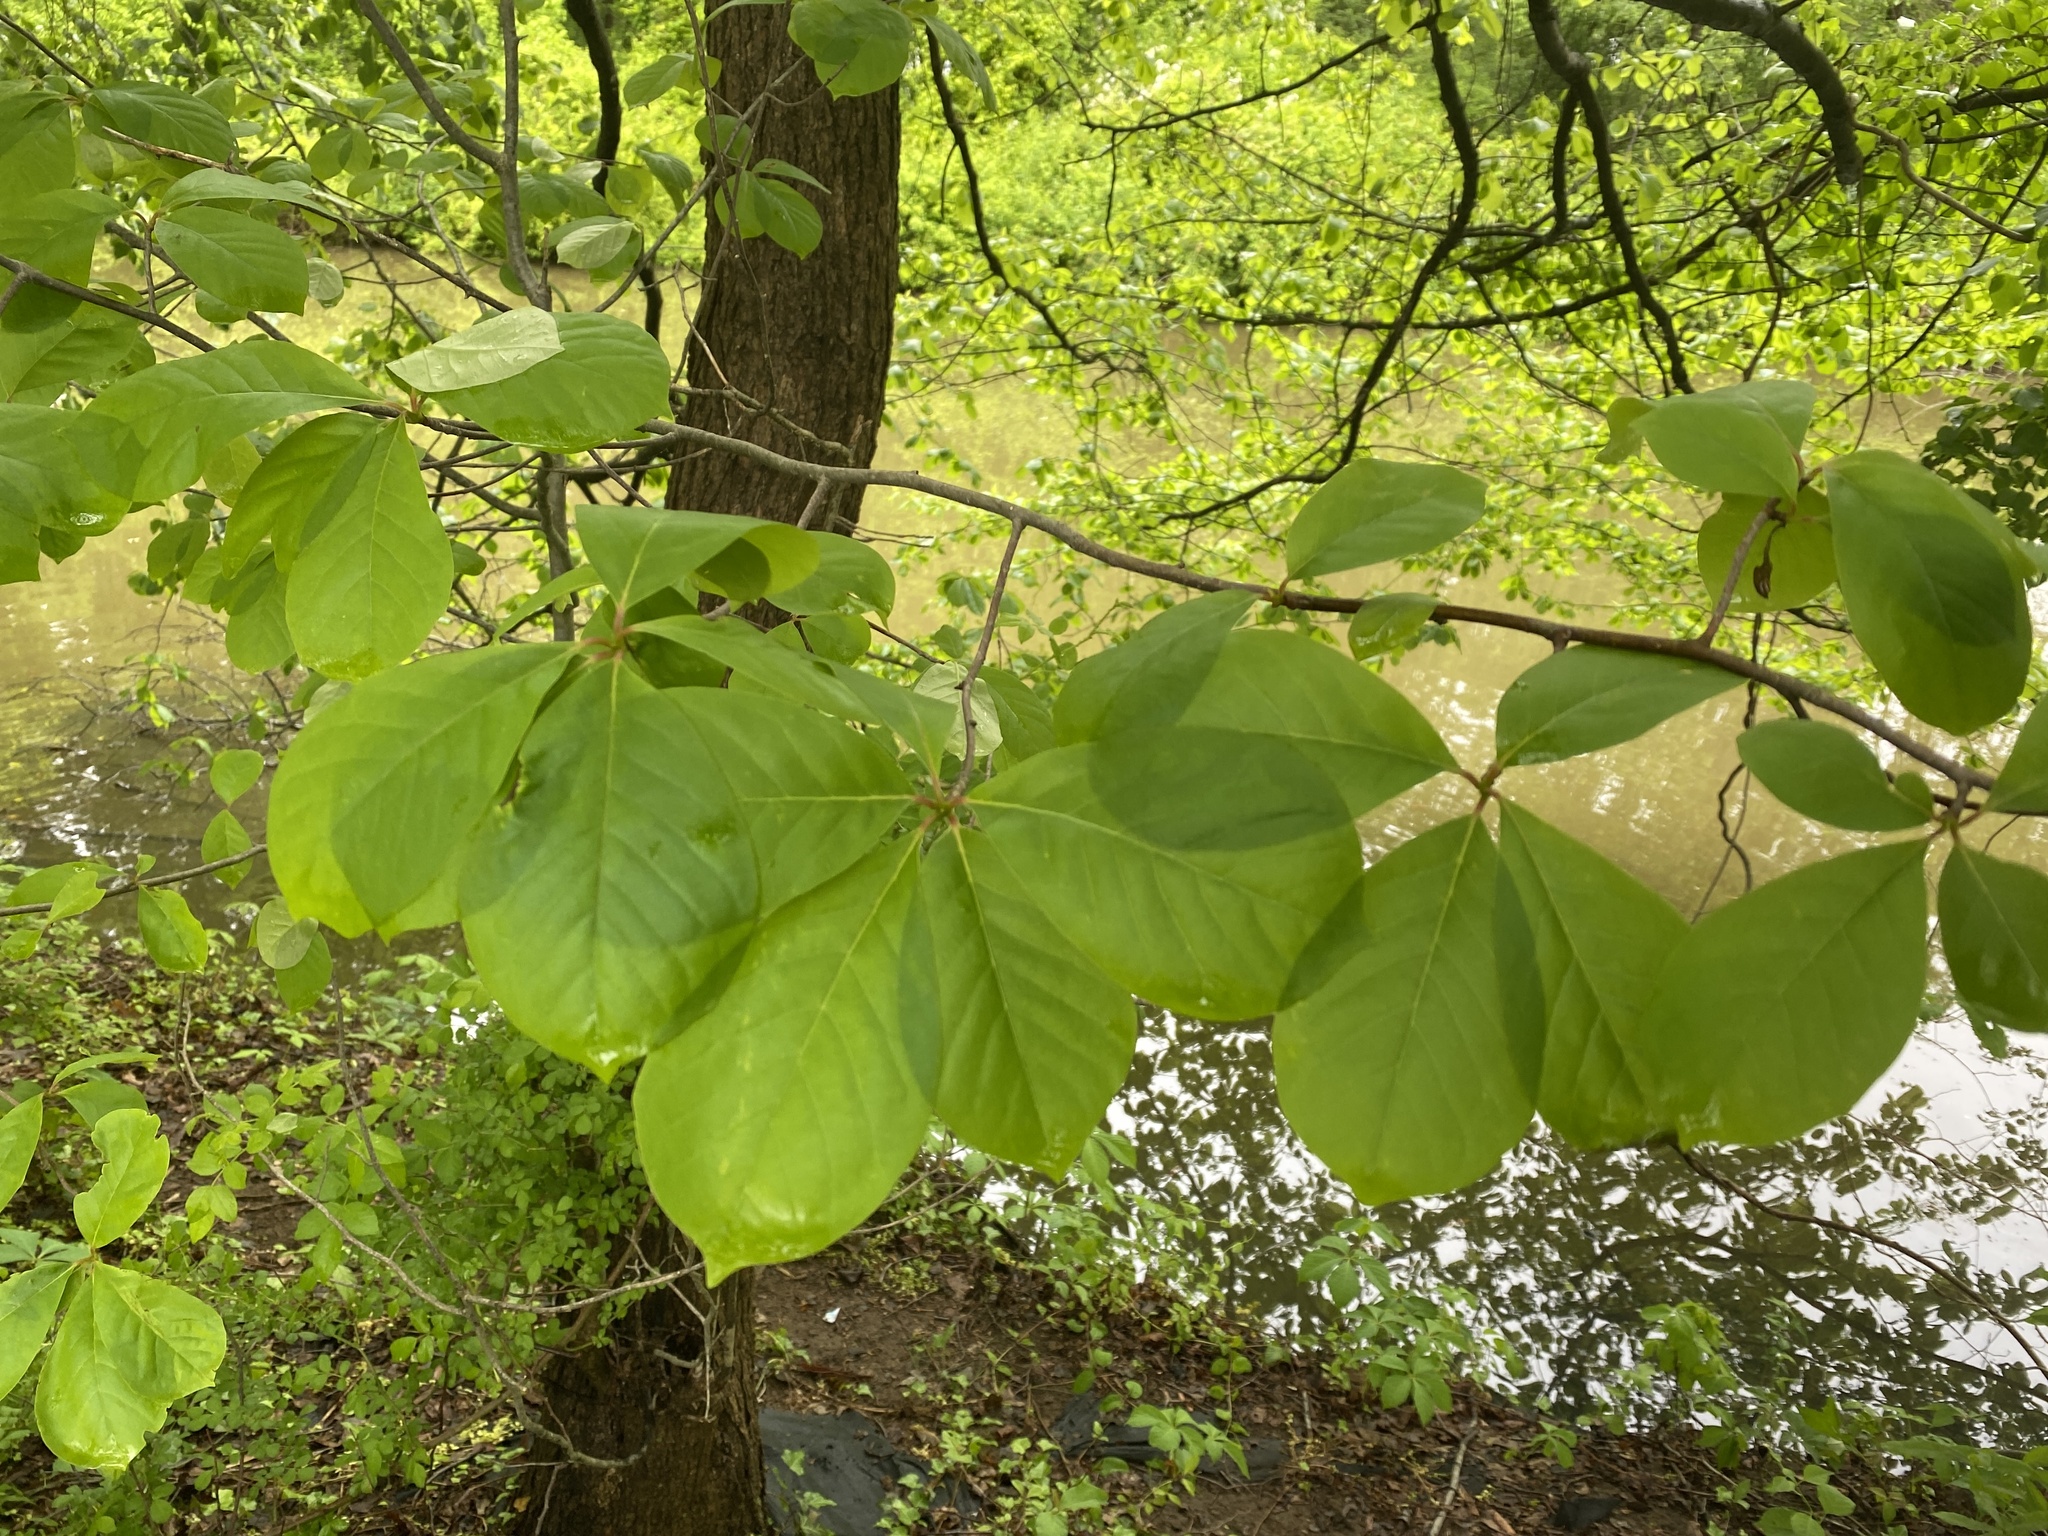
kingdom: Plantae
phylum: Tracheophyta
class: Magnoliopsida
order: Cornales
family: Nyssaceae
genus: Nyssa
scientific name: Nyssa sylvatica
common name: Black tupelo
